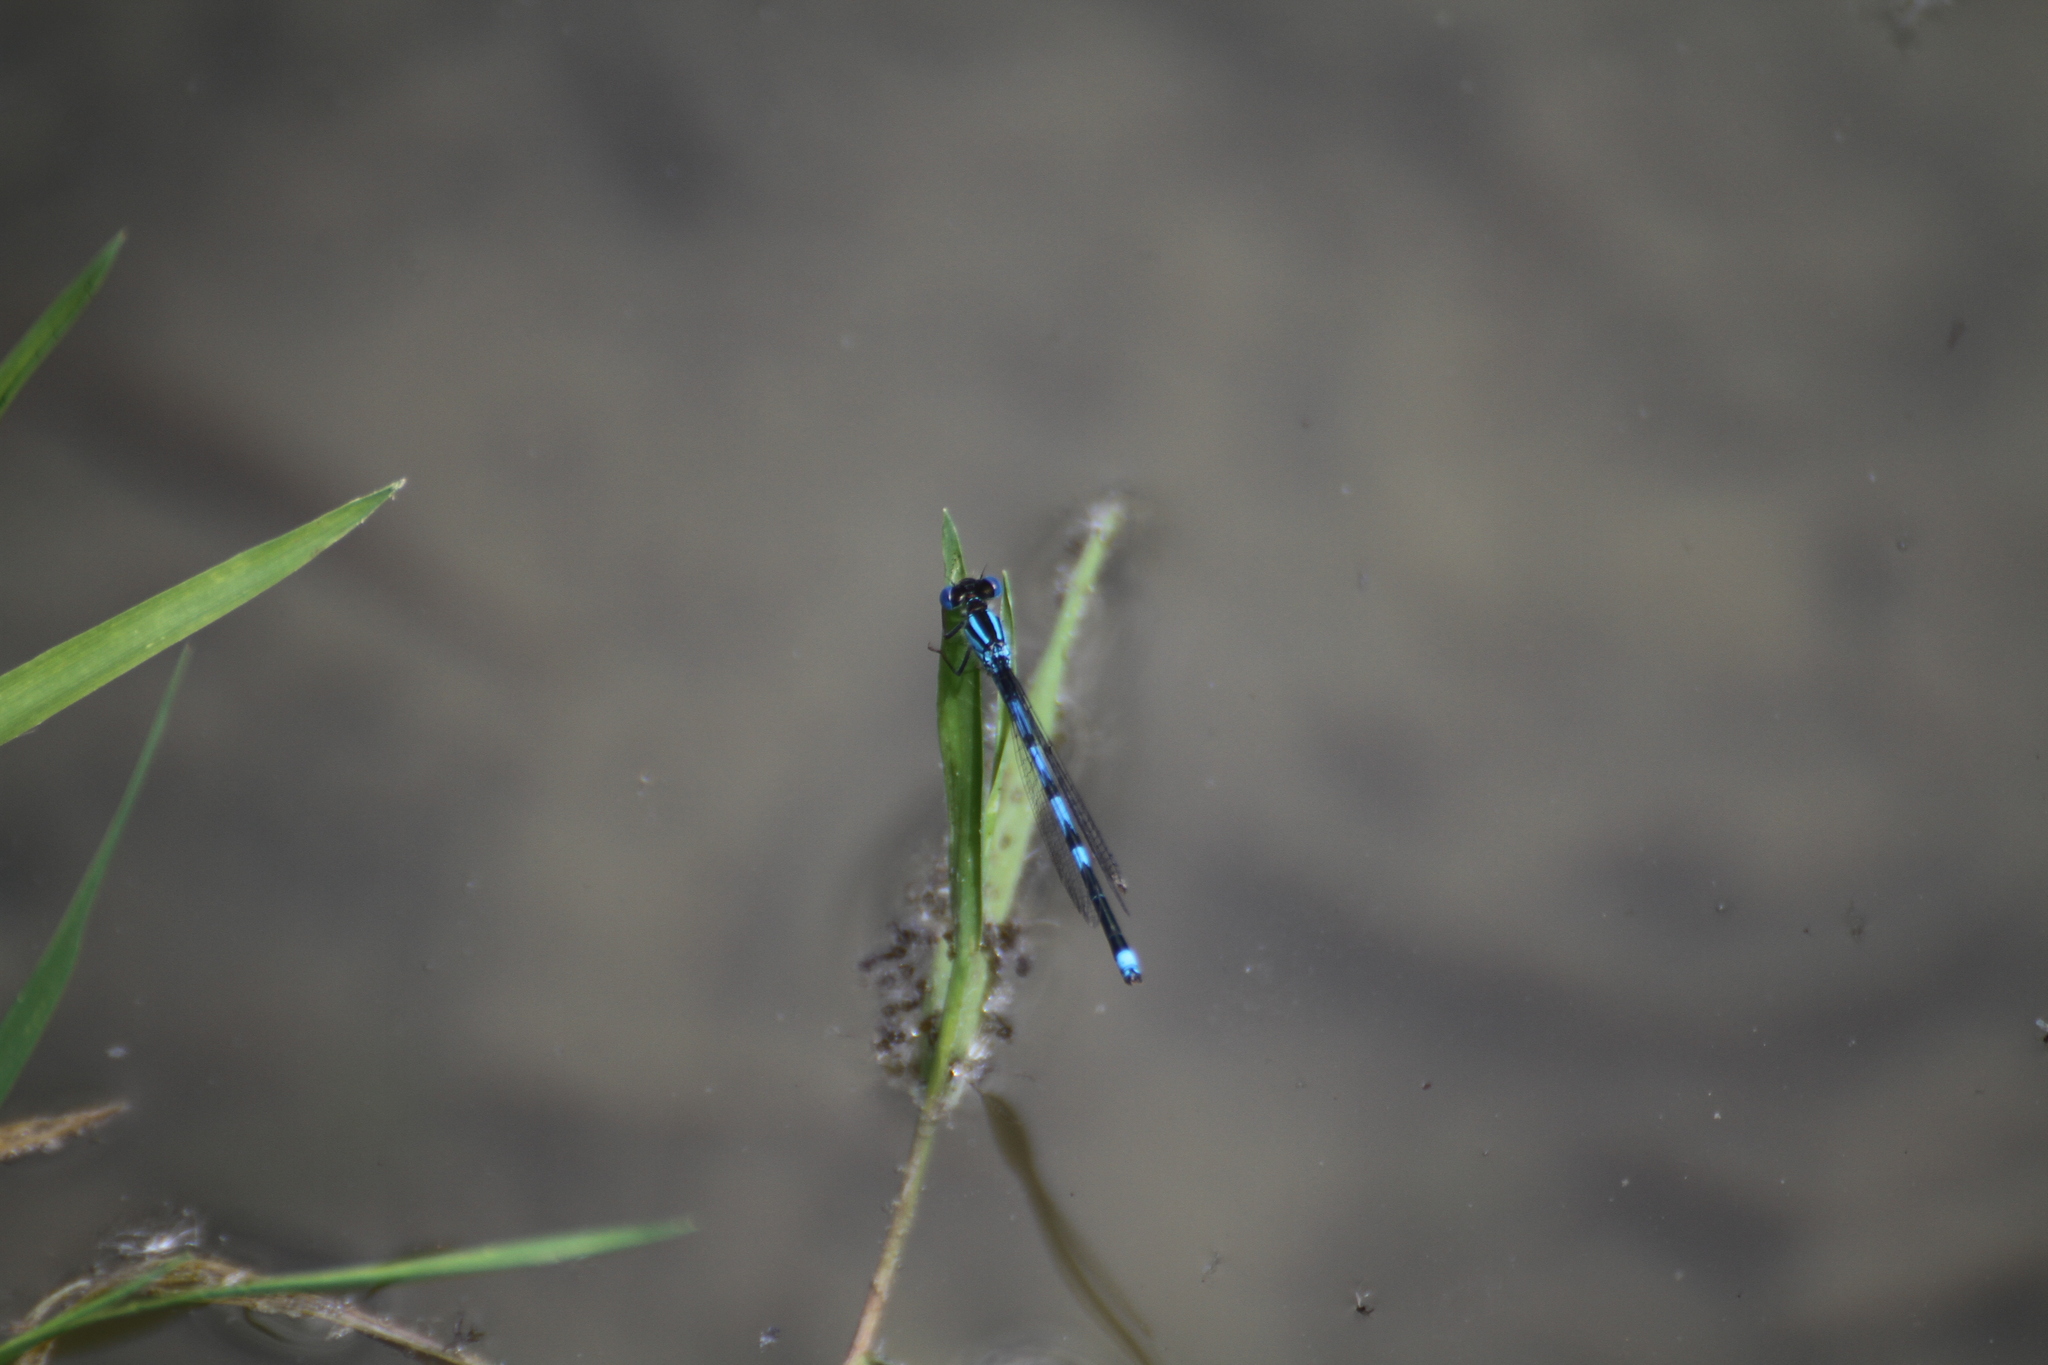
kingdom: Animalia
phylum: Arthropoda
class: Insecta
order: Odonata
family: Coenagrionidae
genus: Erythromma
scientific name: Erythromma lindenii
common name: Blue-eye
